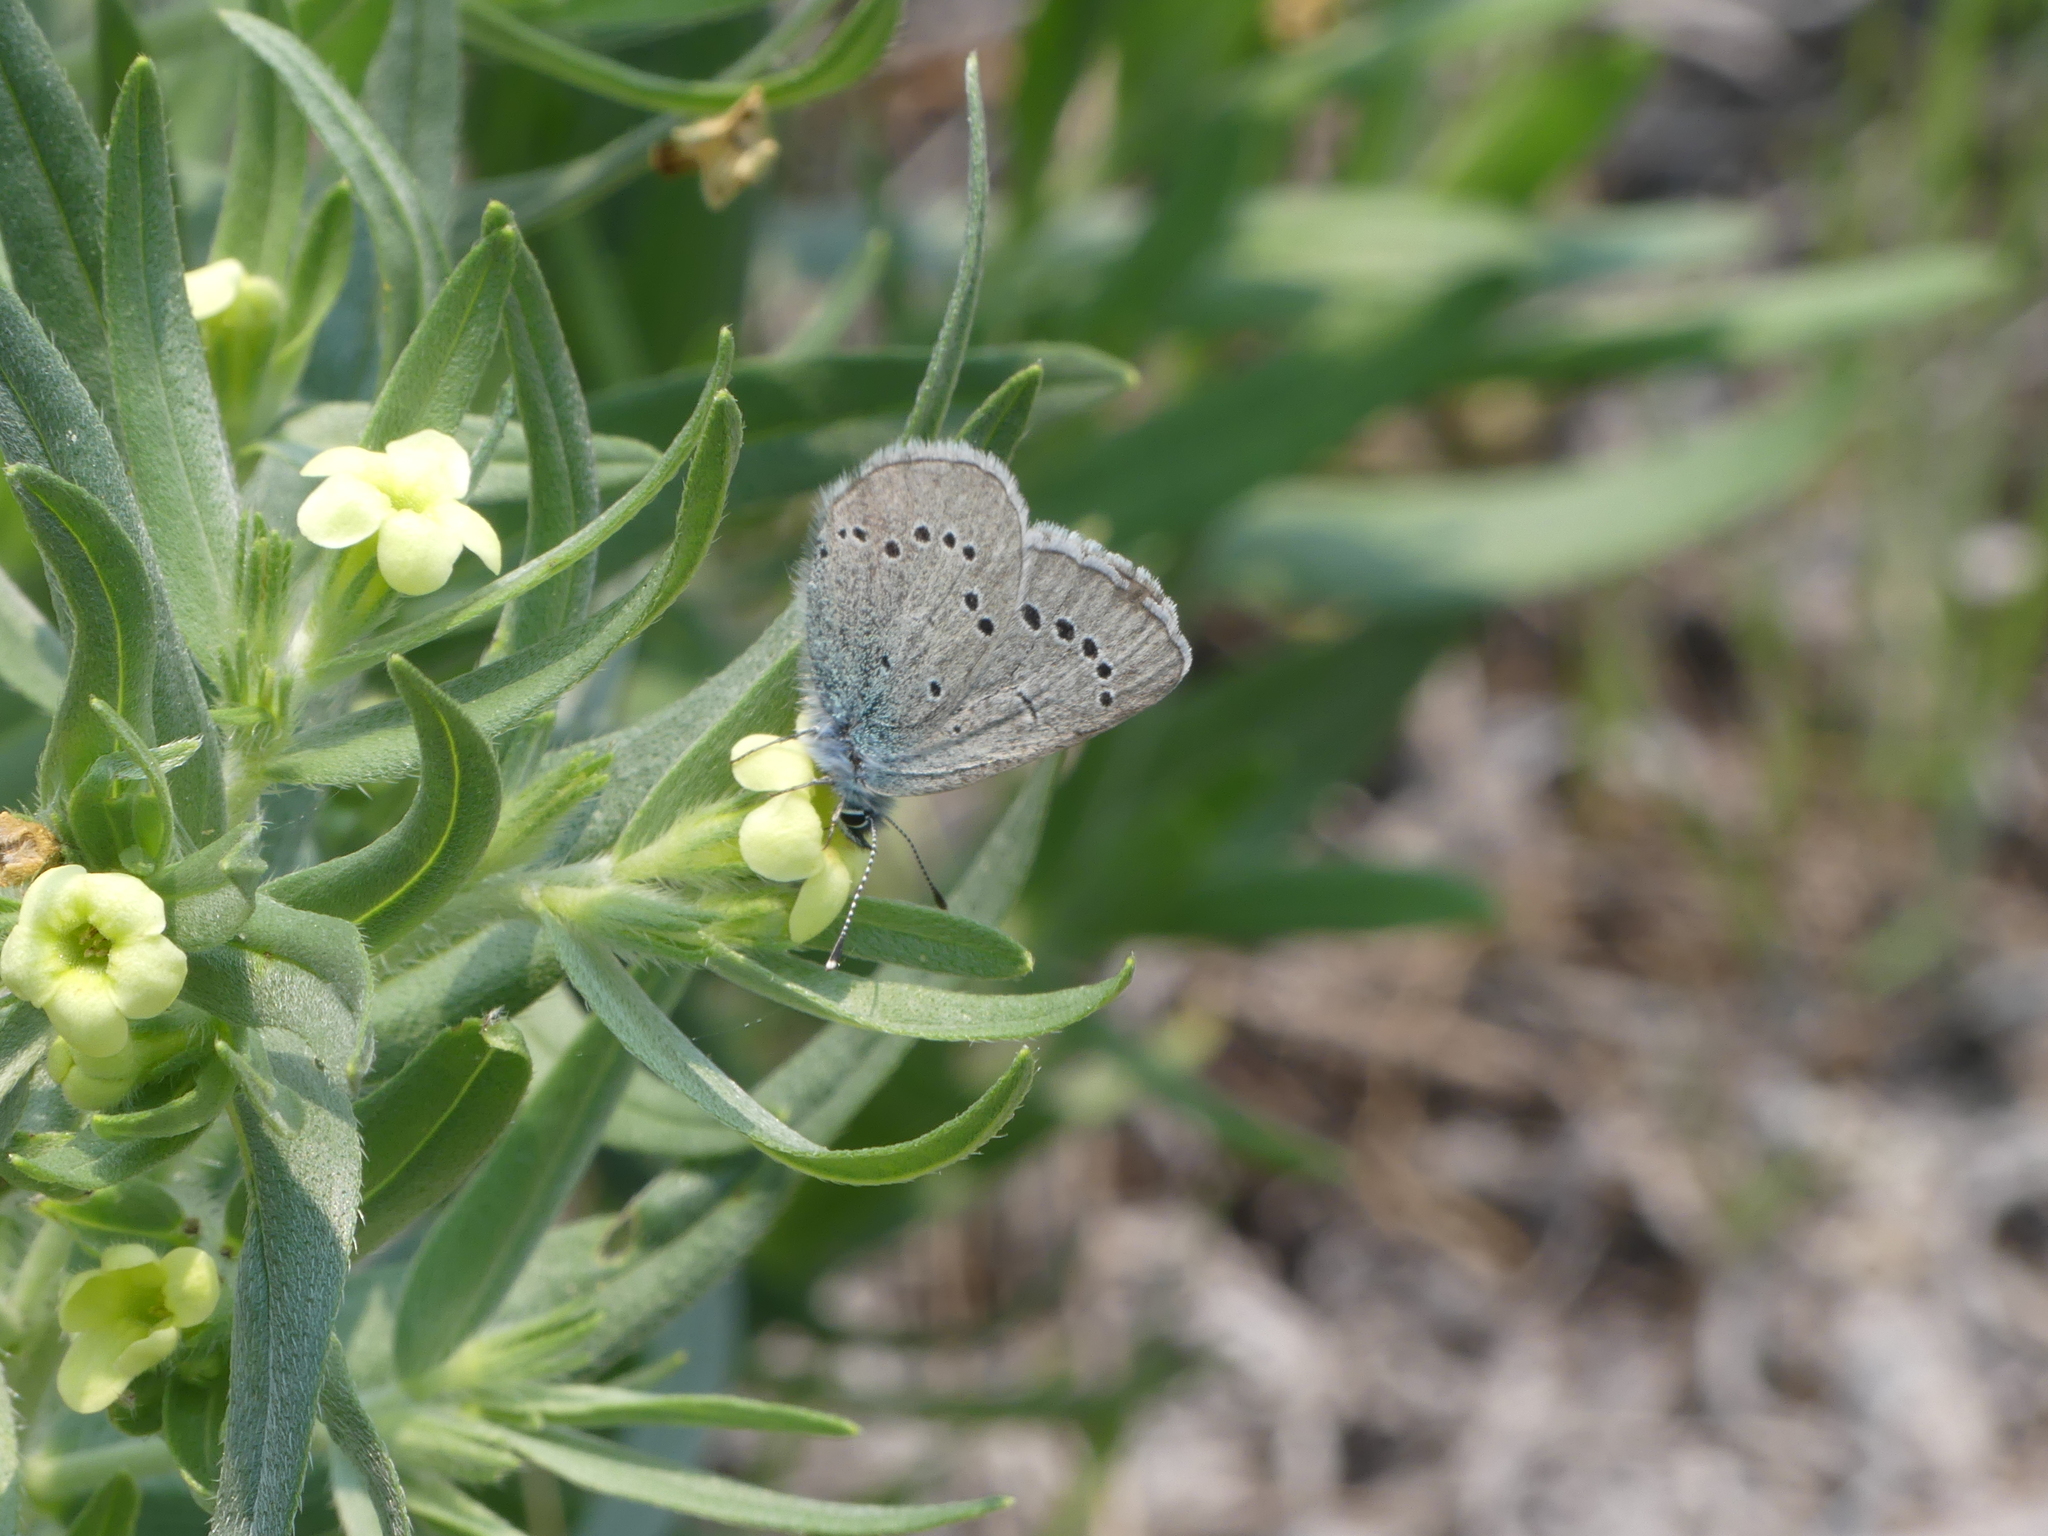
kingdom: Animalia
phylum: Arthropoda
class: Insecta
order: Lepidoptera
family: Lycaenidae
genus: Glaucopsyche
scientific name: Glaucopsyche lygdamus
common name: Silvery blue
